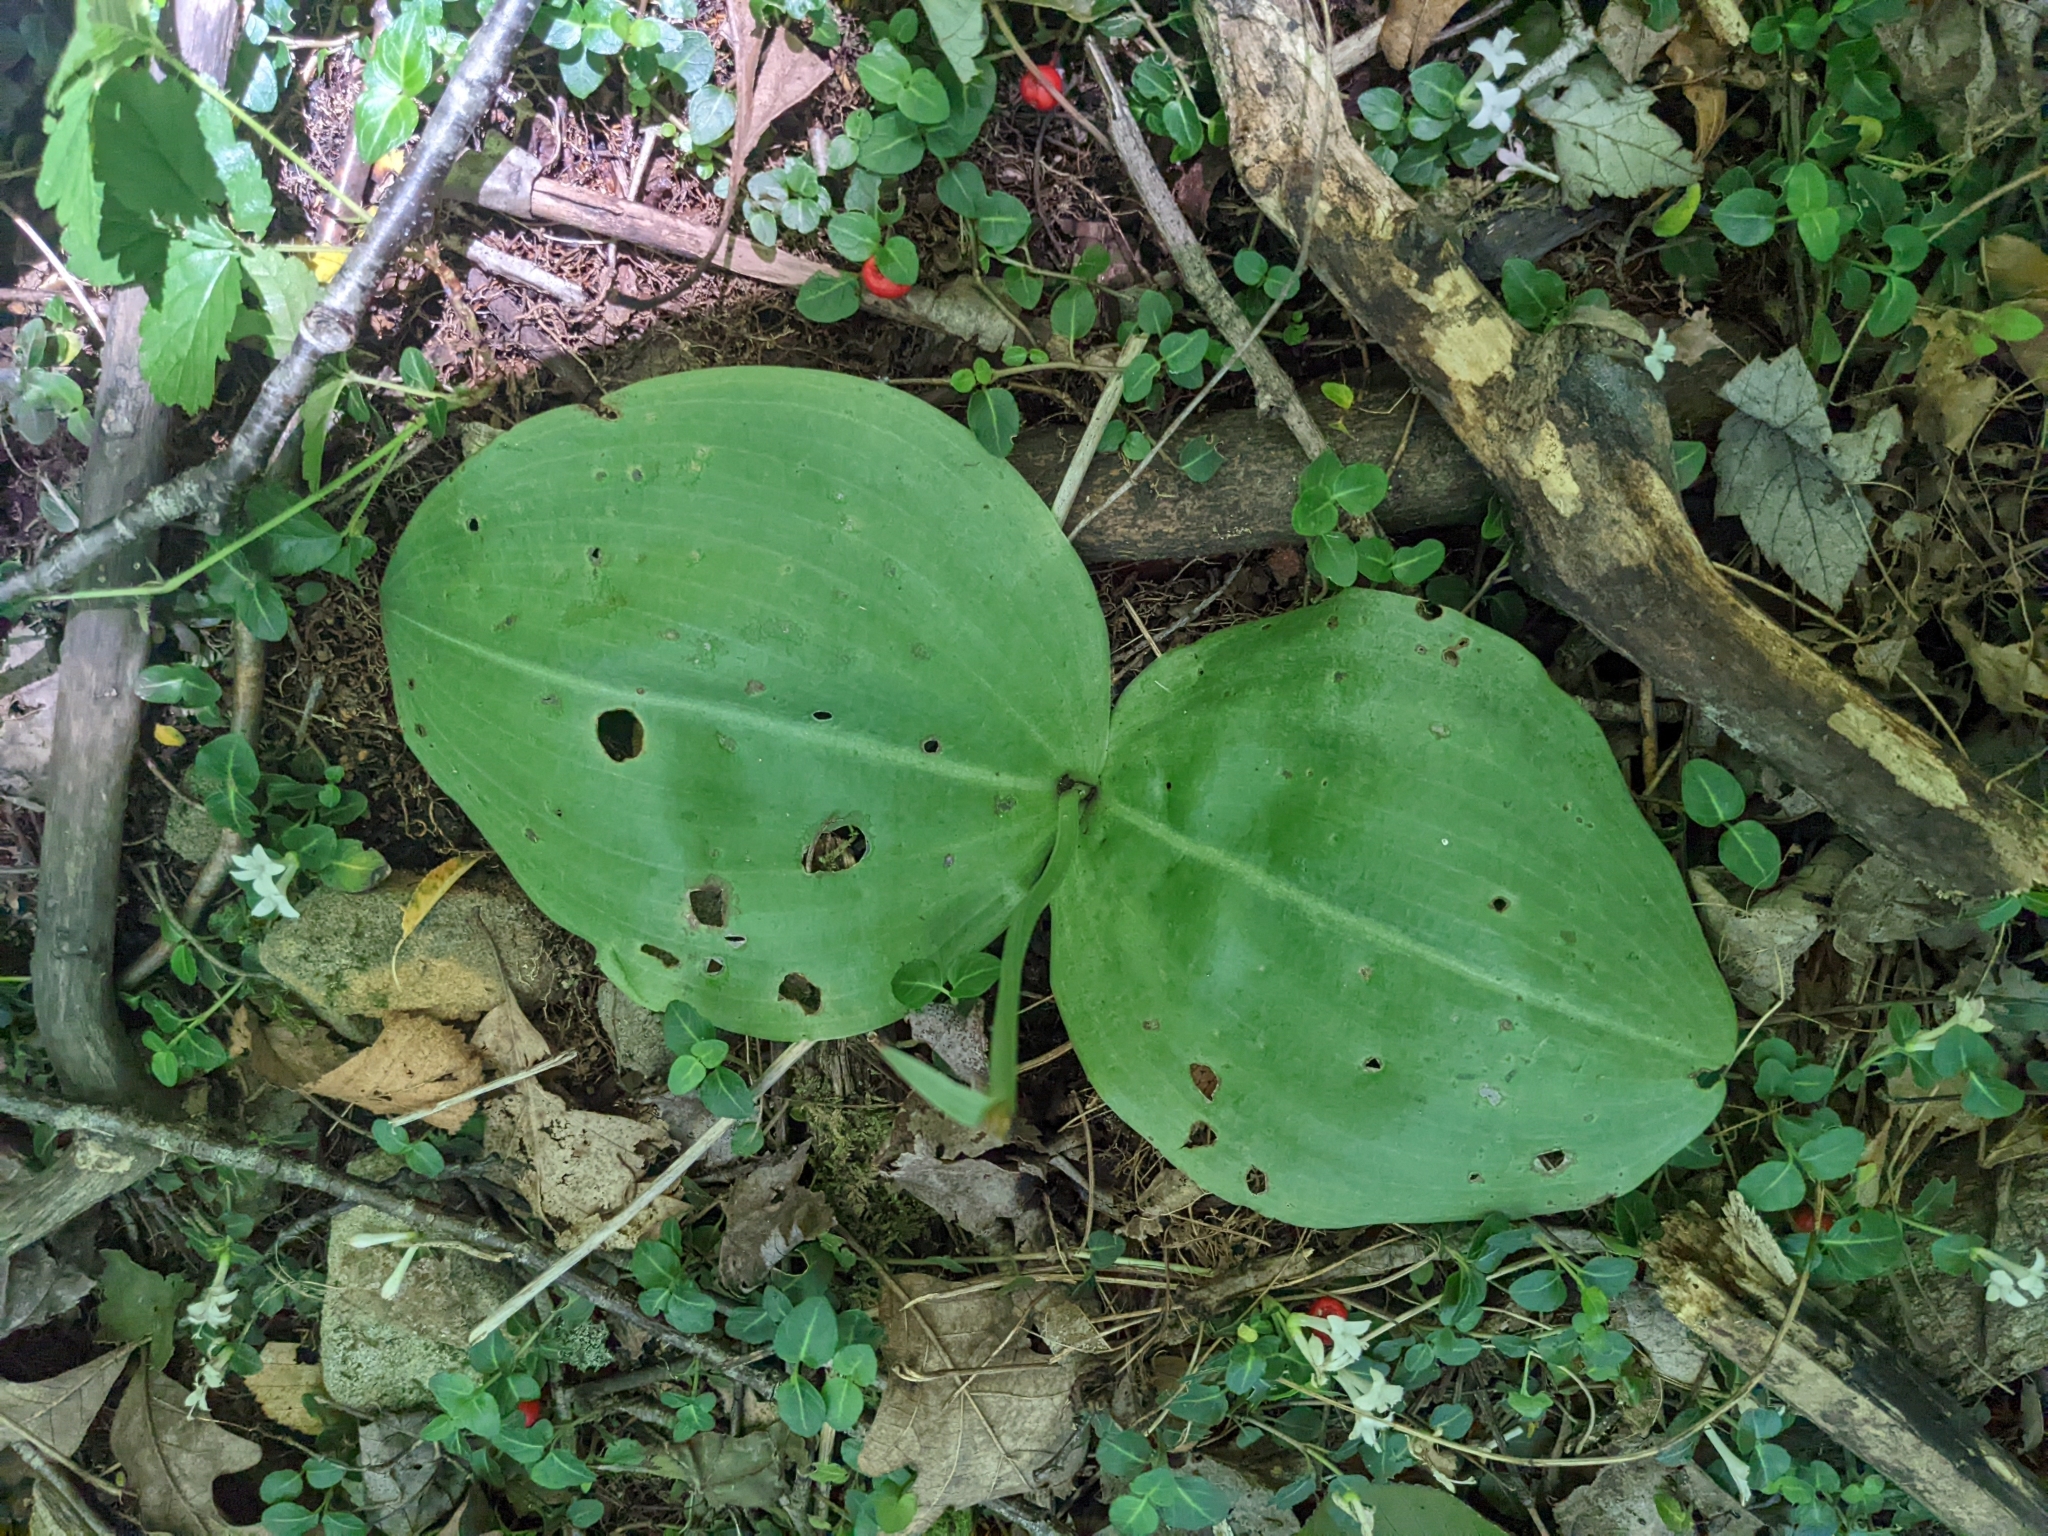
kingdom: Plantae
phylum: Tracheophyta
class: Liliopsida
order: Asparagales
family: Orchidaceae
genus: Platanthera
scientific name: Platanthera orbiculata
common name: Large round-leaved orchid
